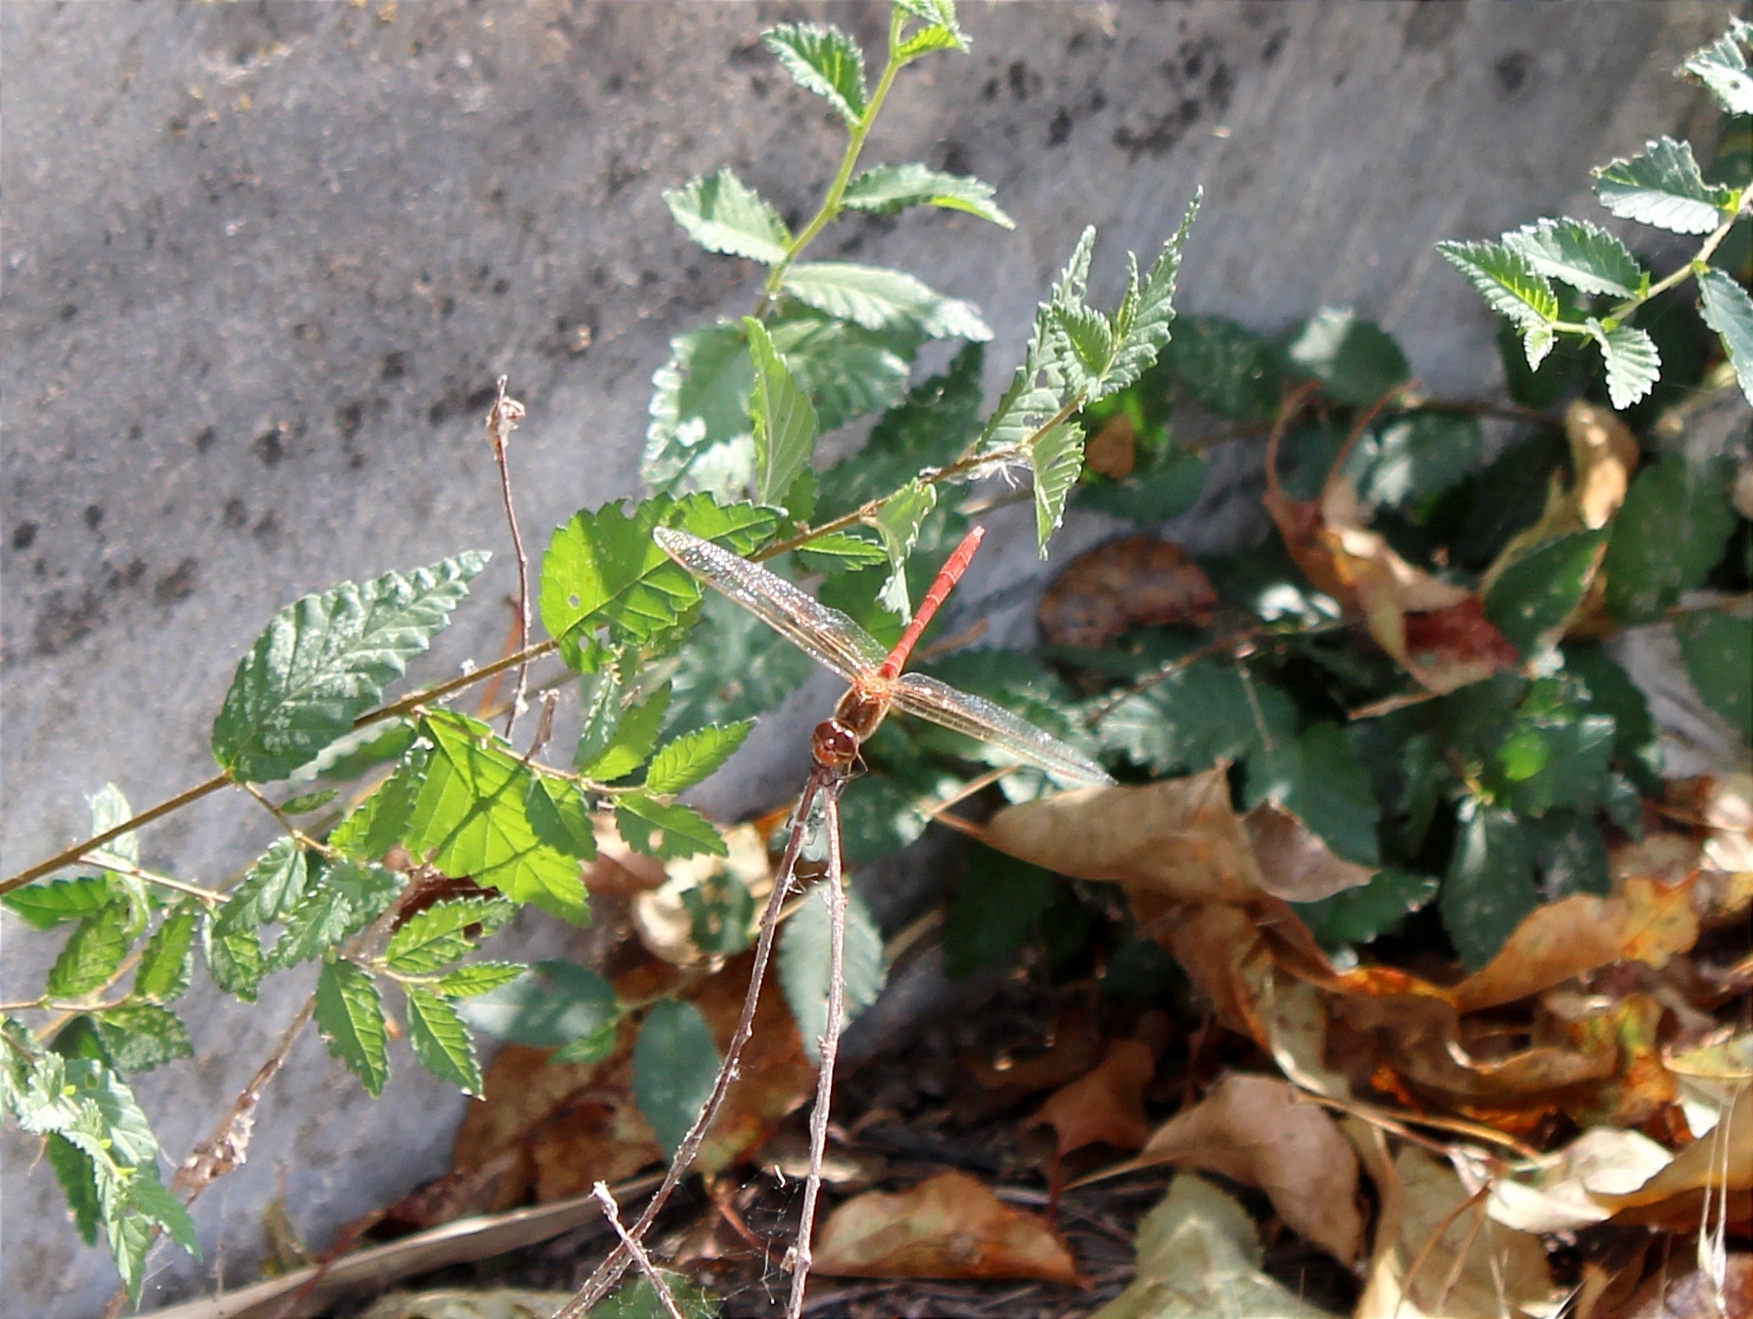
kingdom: Animalia
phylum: Arthropoda
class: Insecta
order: Odonata
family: Libellulidae
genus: Sympetrum
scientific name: Sympetrum meridionale
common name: Southern darter
